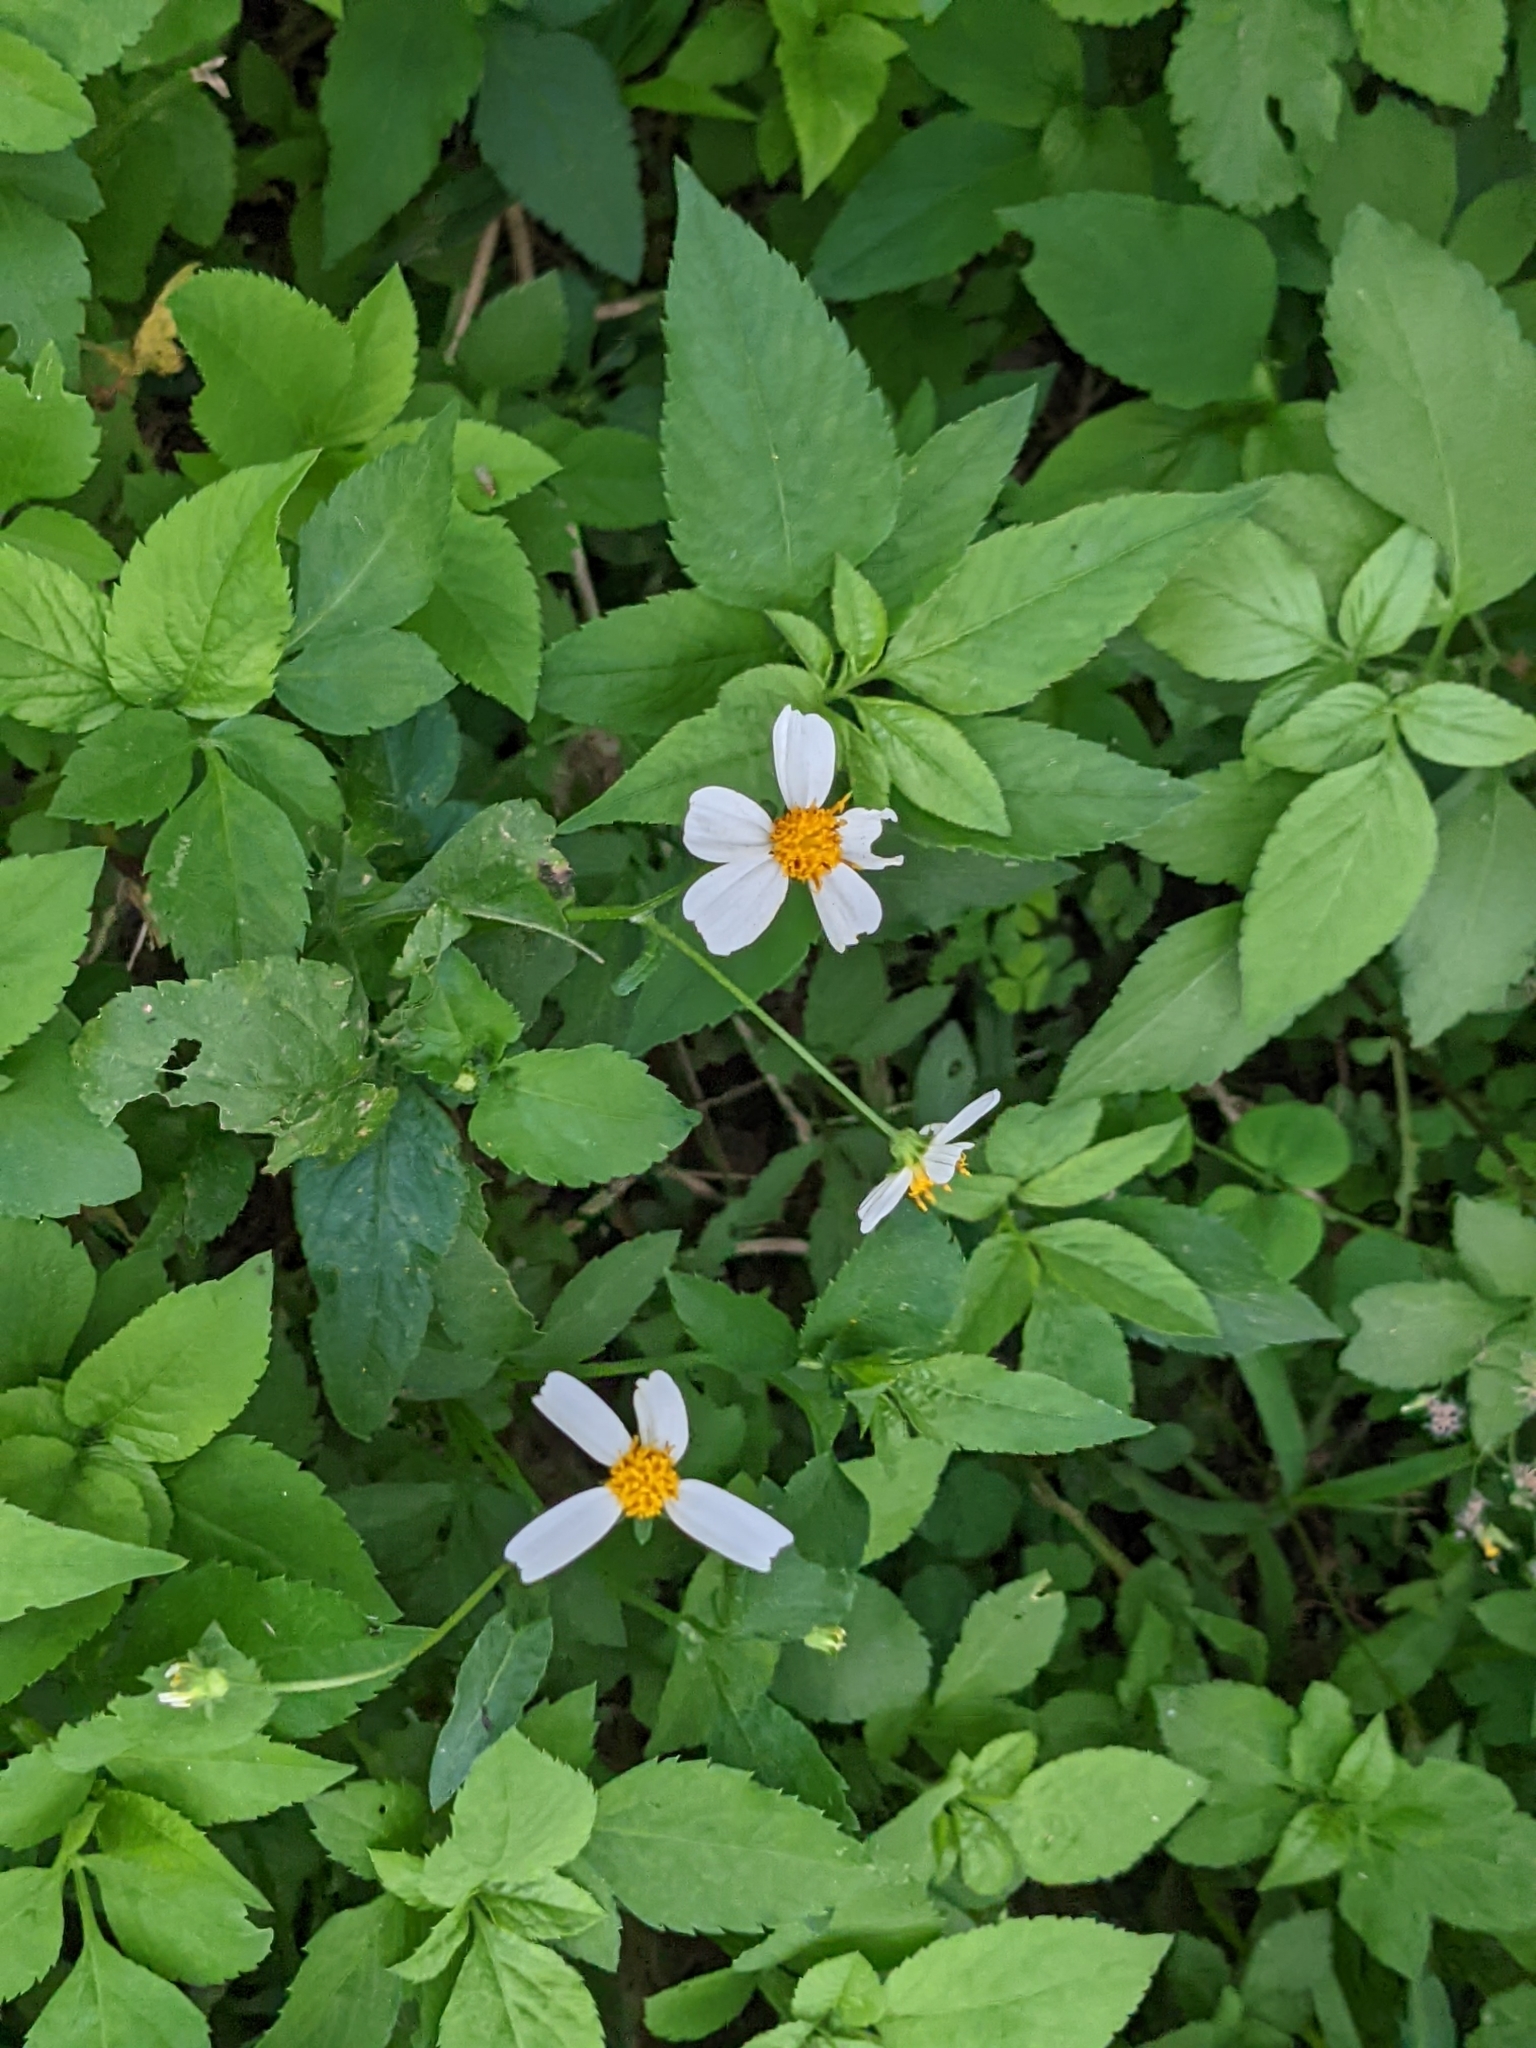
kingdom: Plantae
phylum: Tracheophyta
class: Magnoliopsida
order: Asterales
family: Asteraceae
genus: Bidens
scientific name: Bidens alba
